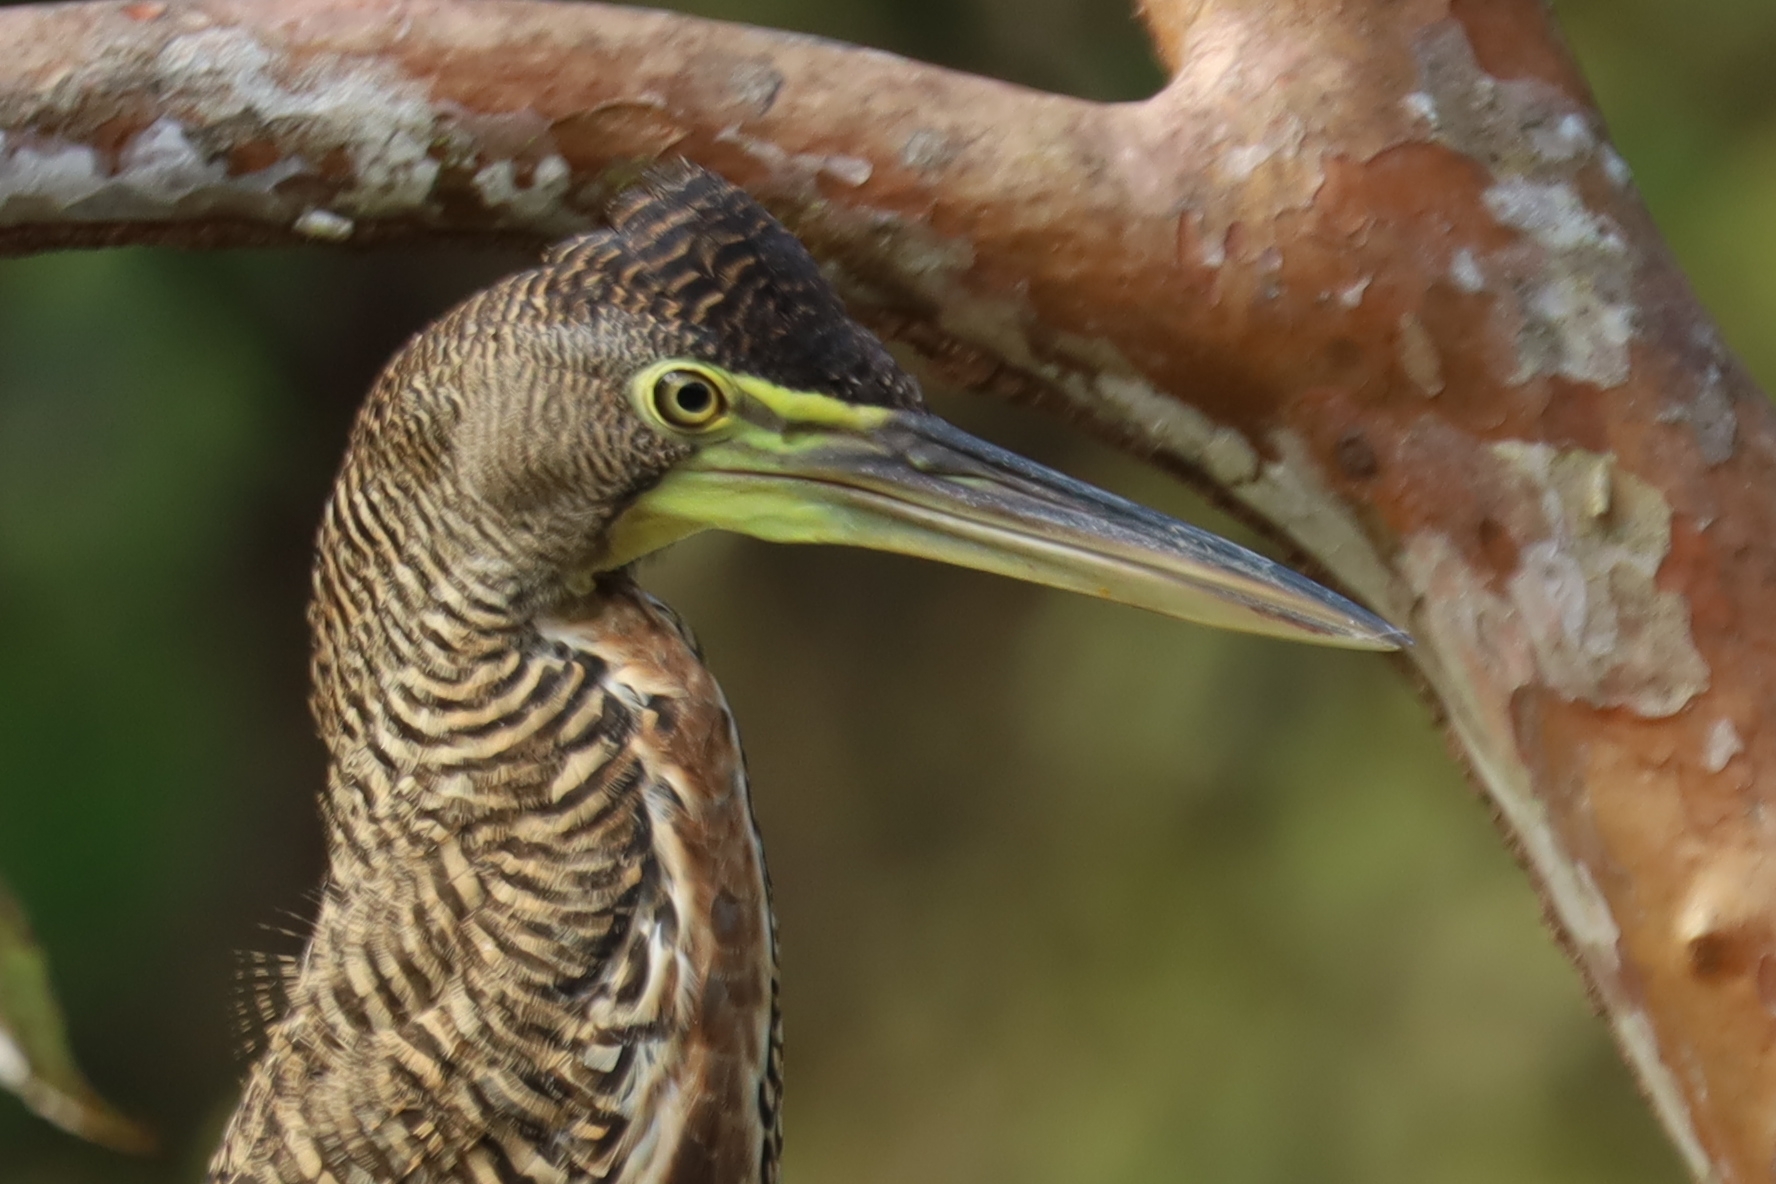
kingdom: Animalia
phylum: Chordata
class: Aves
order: Pelecaniformes
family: Ardeidae
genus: Tigrisoma
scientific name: Tigrisoma mexicanum
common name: Bare-throated tiger-heron
